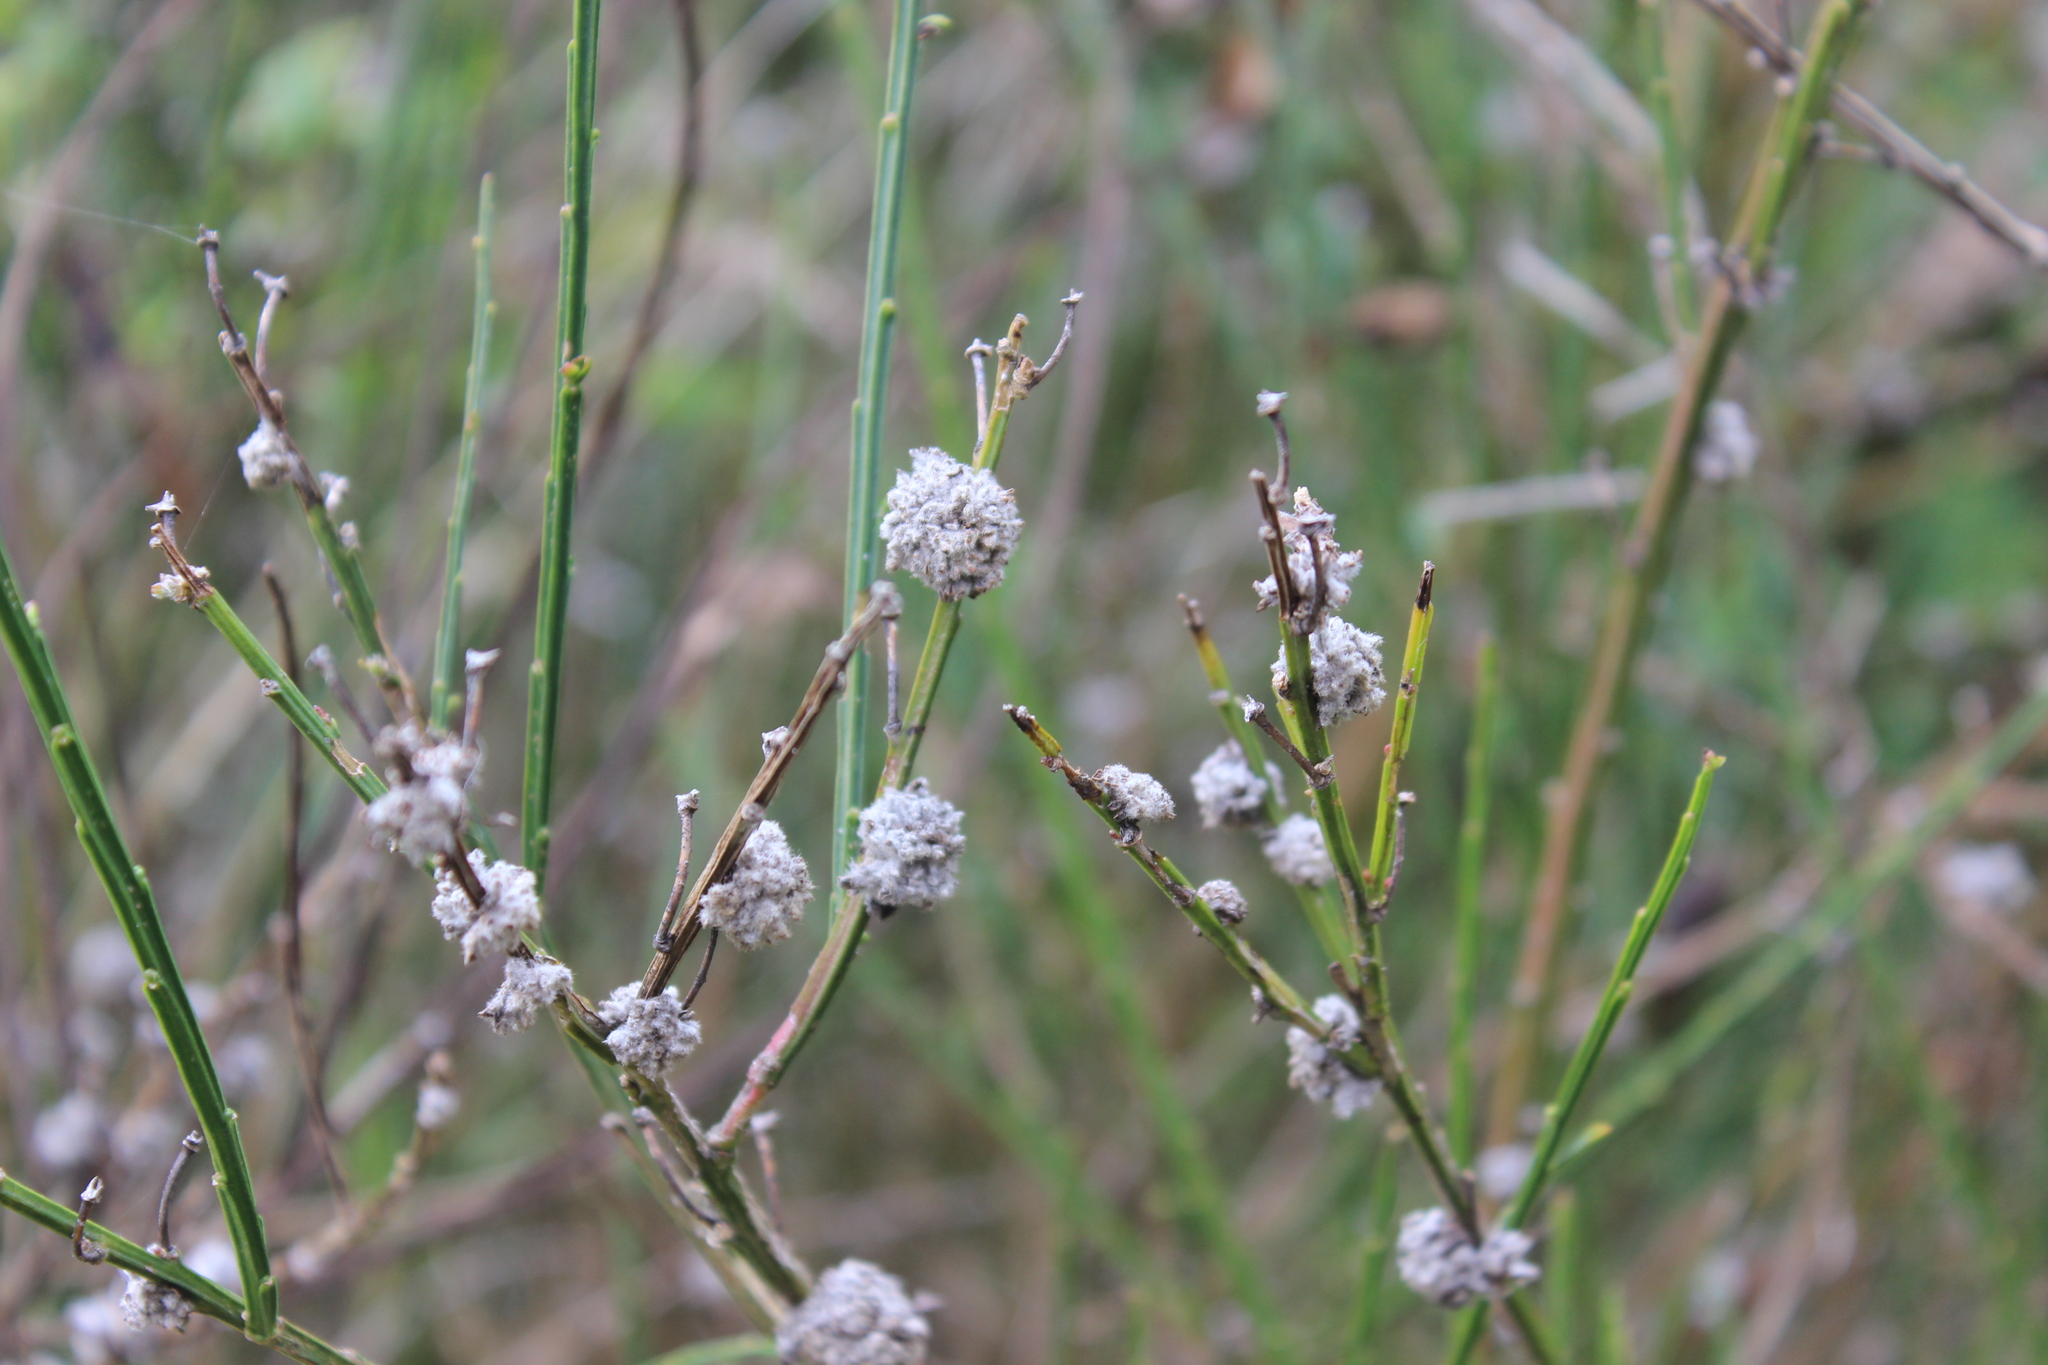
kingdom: Plantae
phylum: Tracheophyta
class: Magnoliopsida
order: Fabales
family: Fabaceae
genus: Cytisus
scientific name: Cytisus scoparius
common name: Scotch broom
